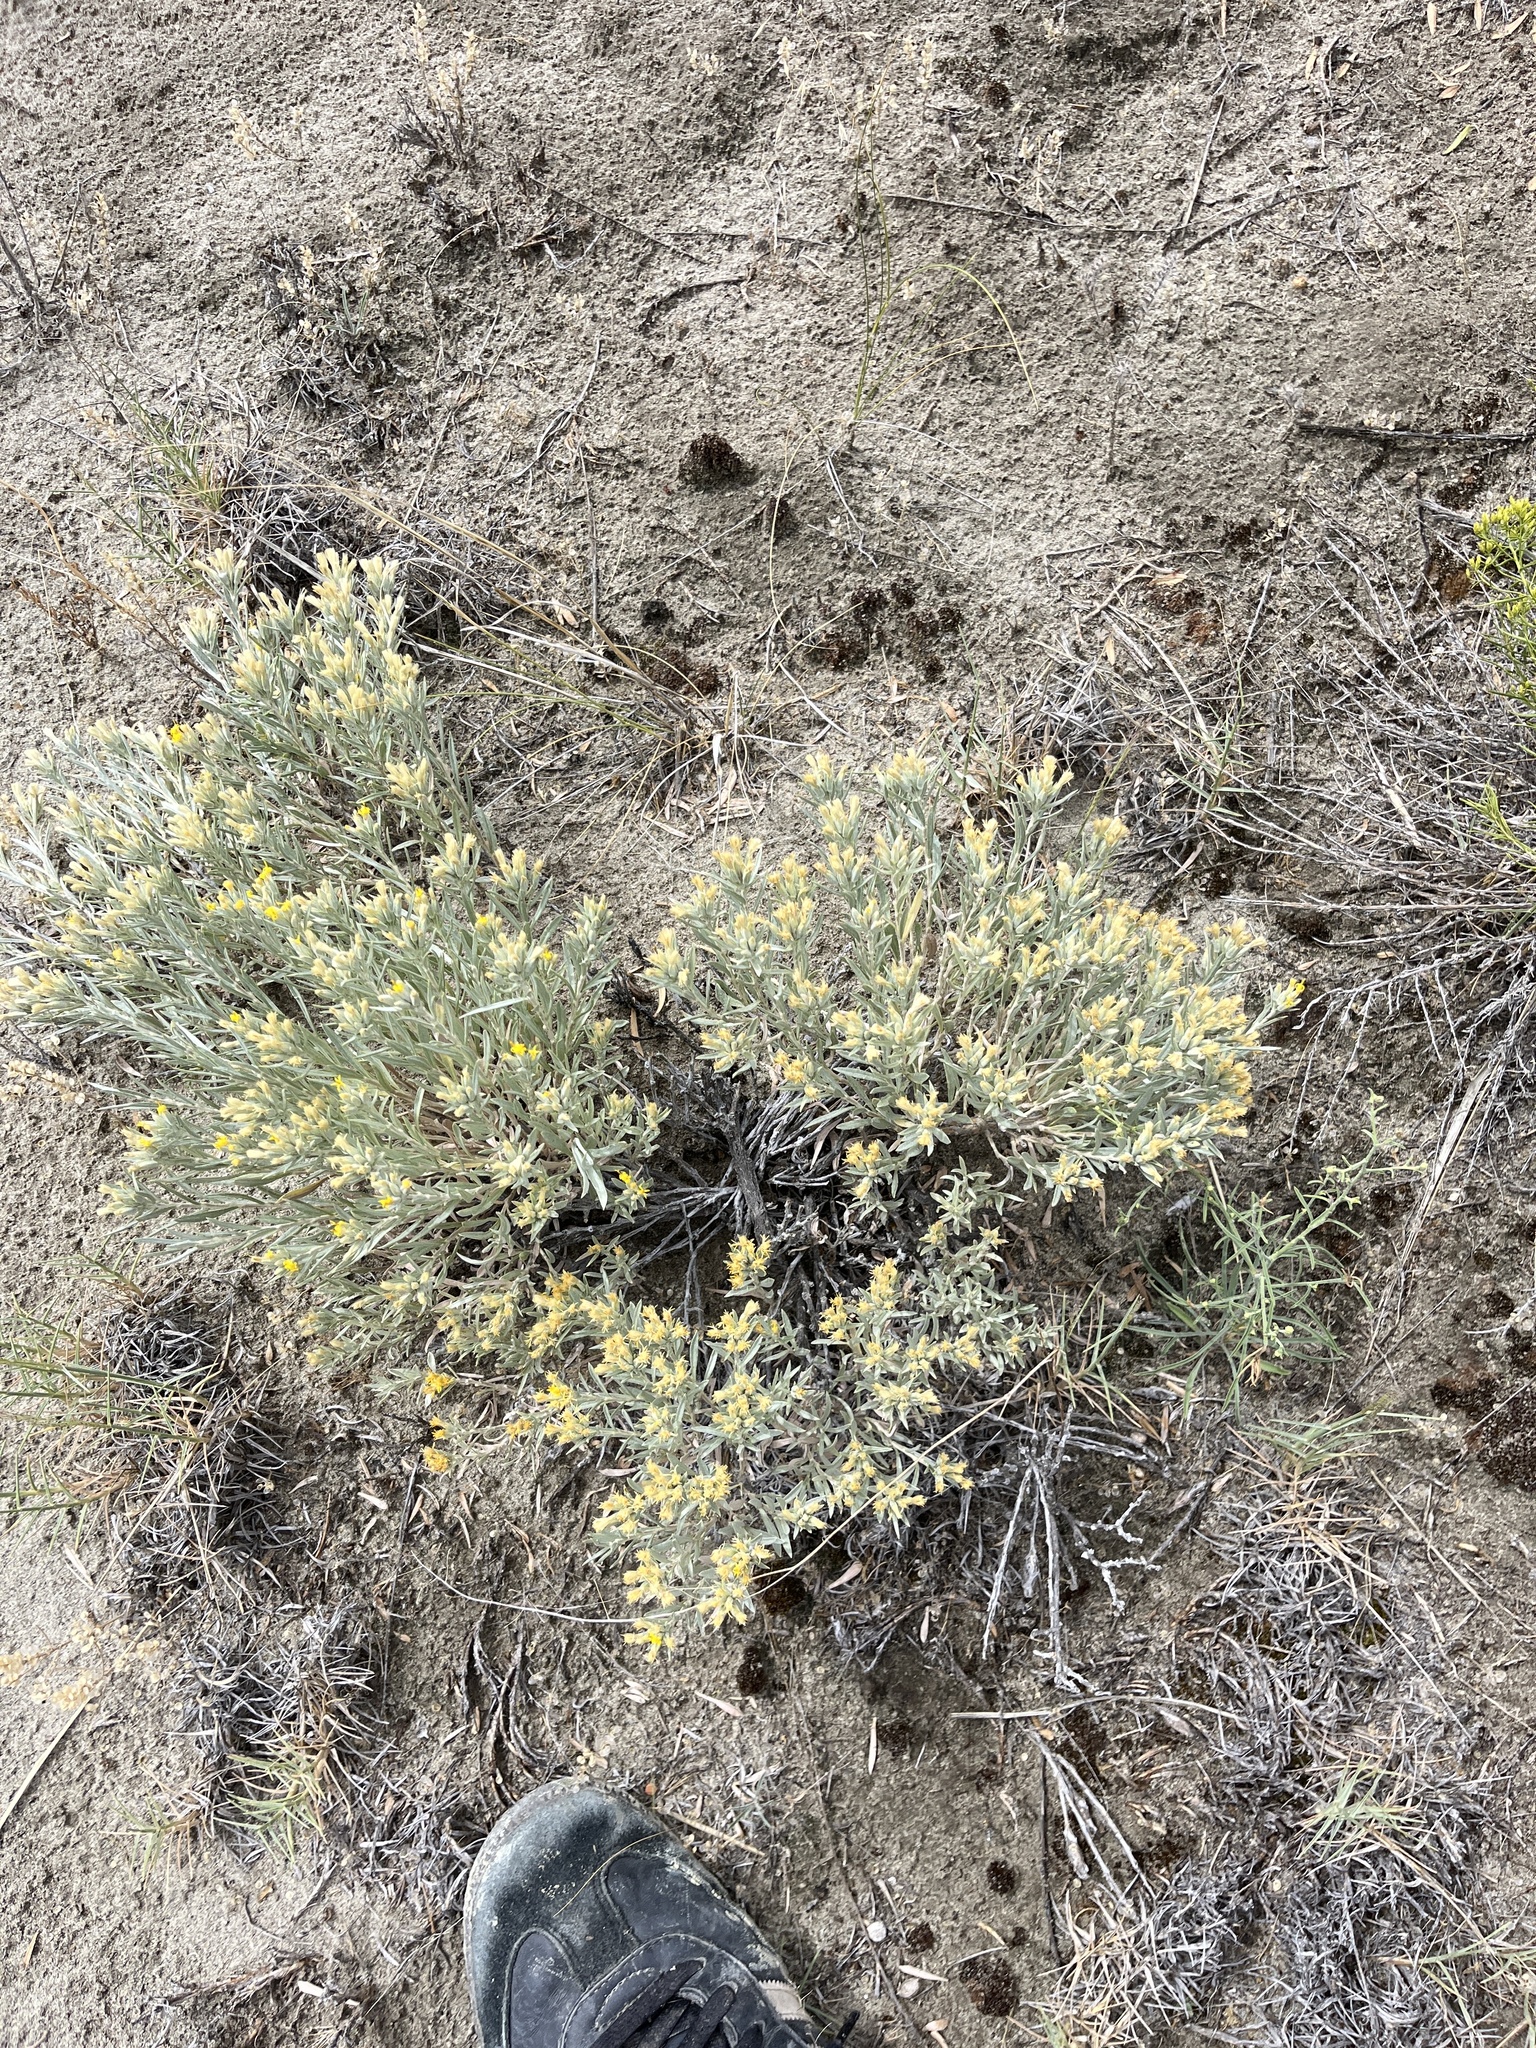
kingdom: Plantae
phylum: Tracheophyta
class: Magnoliopsida
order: Asterales
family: Asteraceae
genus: Tetradymia
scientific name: Tetradymia canescens
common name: Spineless horsebrush
